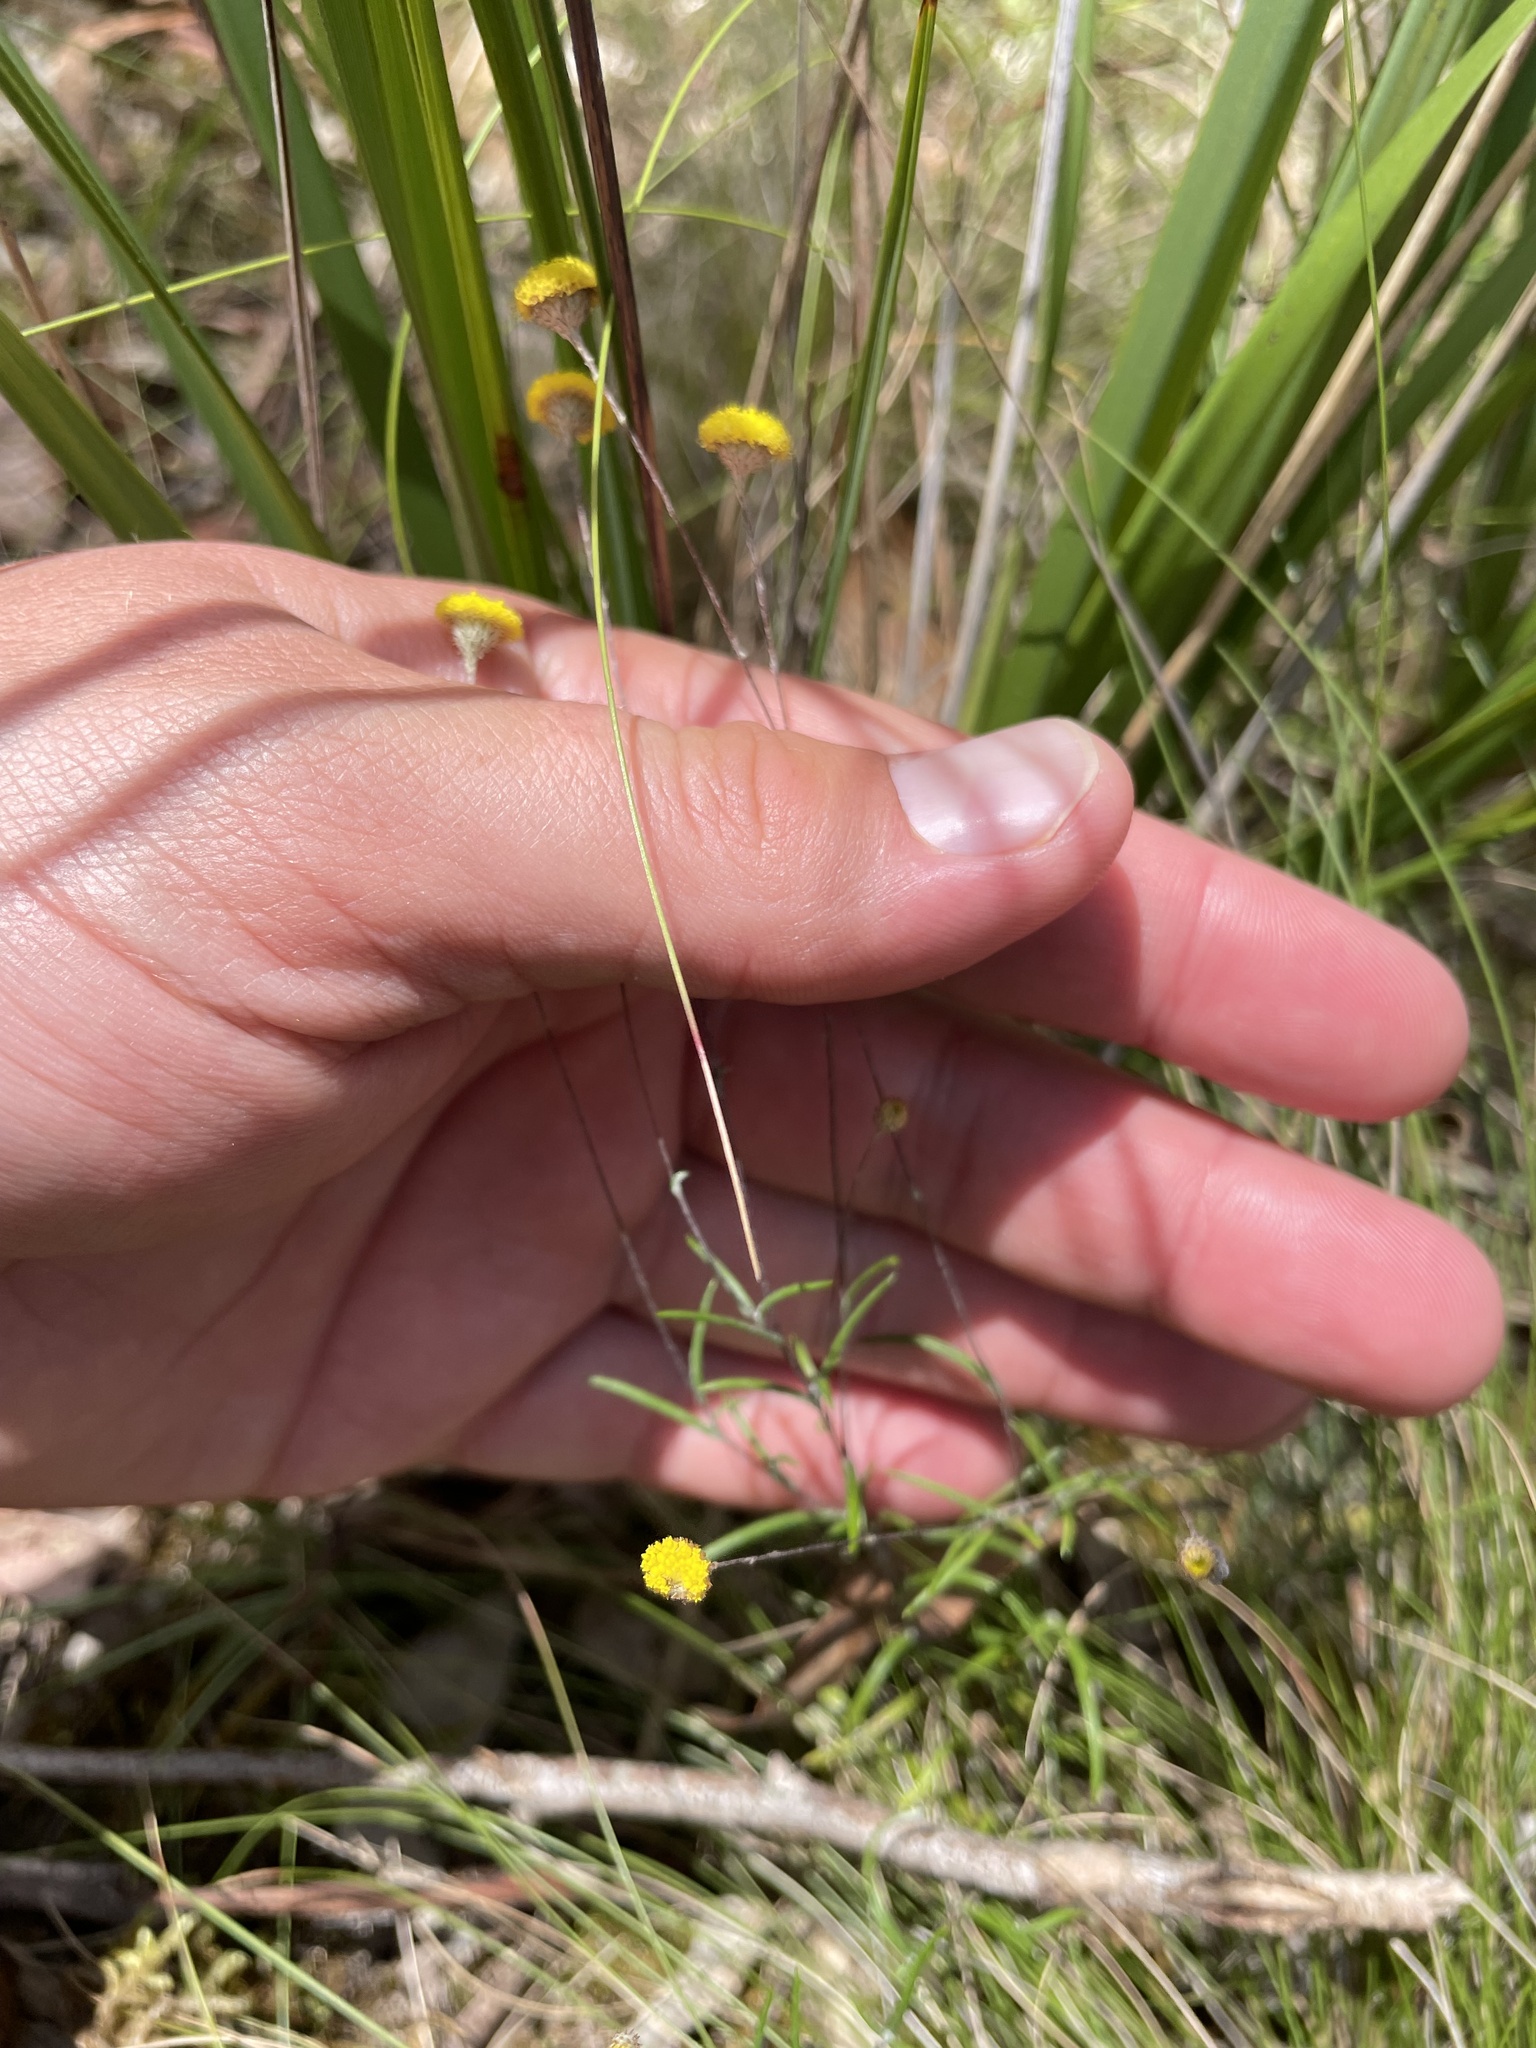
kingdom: Plantae
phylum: Tracheophyta
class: Magnoliopsida
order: Asterales
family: Asteraceae
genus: Leptorhynchos
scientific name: Leptorhynchos tenuifolius
